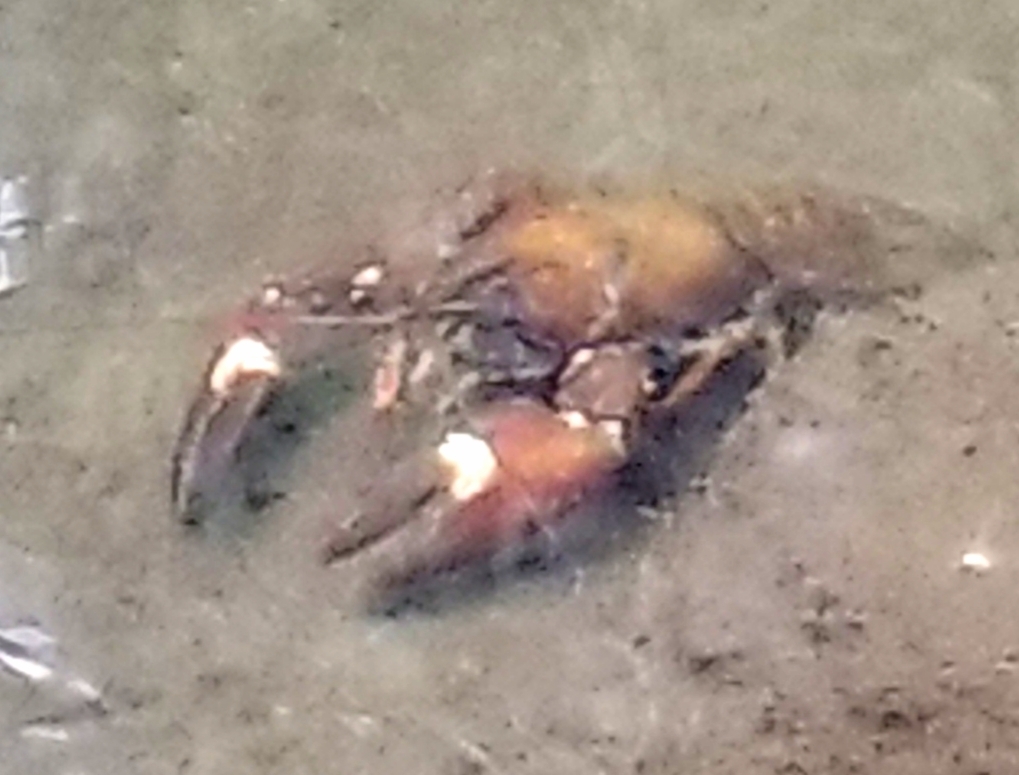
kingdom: Animalia
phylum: Arthropoda
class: Malacostraca
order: Decapoda
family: Astacidae
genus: Pacifastacus
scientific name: Pacifastacus leniusculus
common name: Signal crayfish
